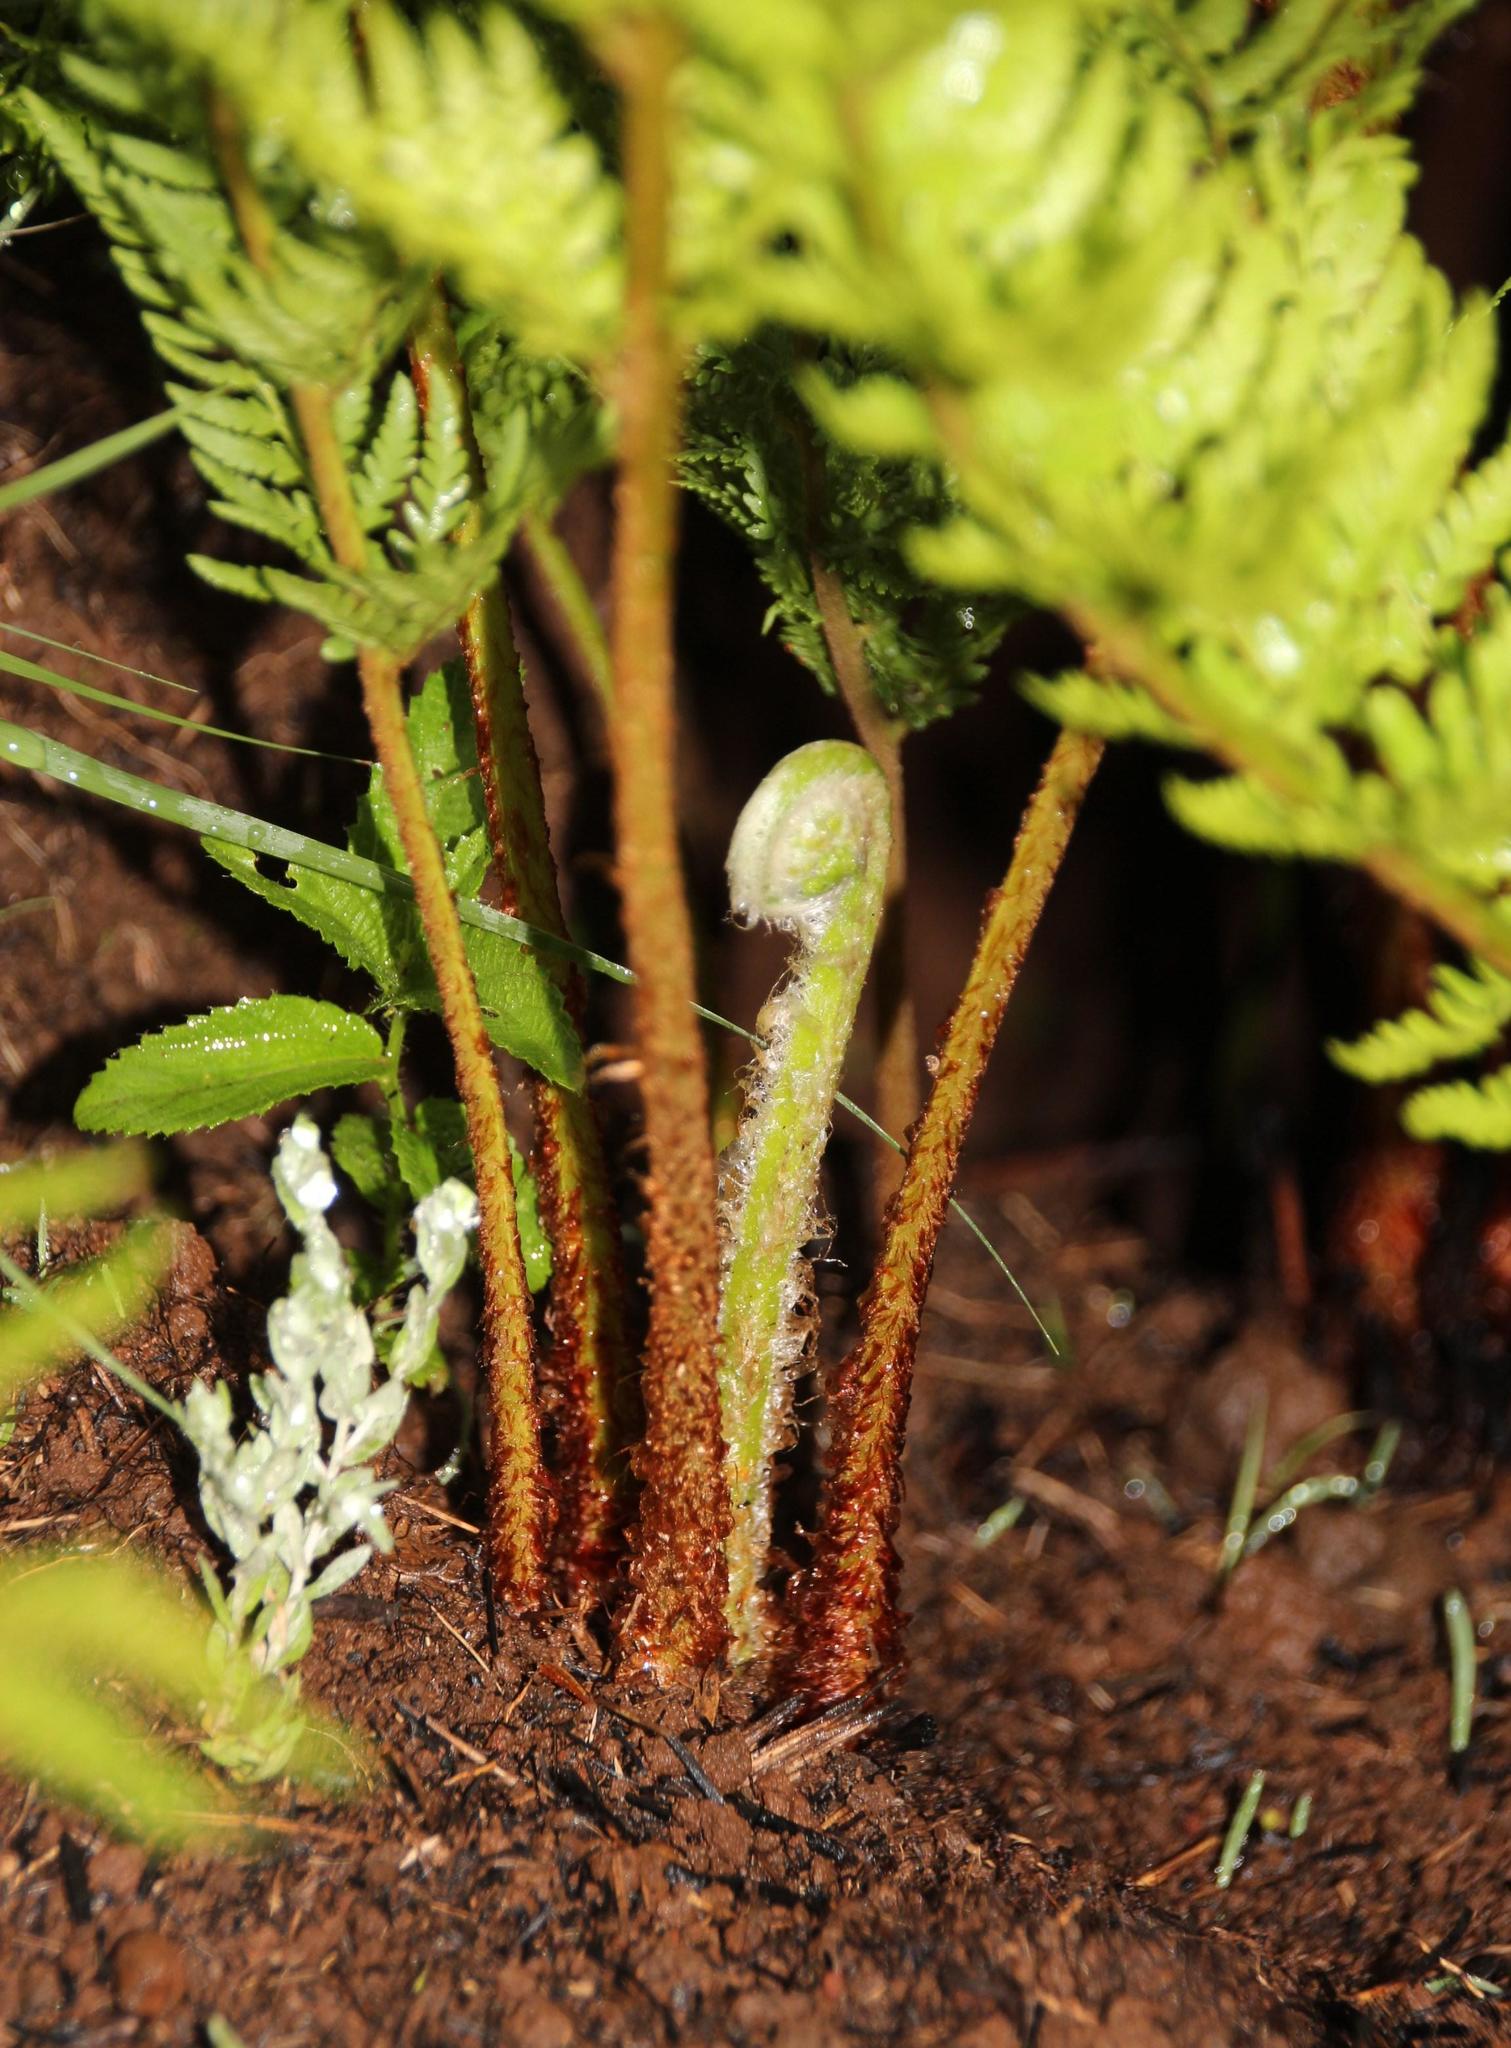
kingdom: Plantae
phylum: Tracheophyta
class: Polypodiopsida
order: Polypodiales
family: Dryopteridaceae
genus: Dryopteris
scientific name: Dryopteris athamantica
